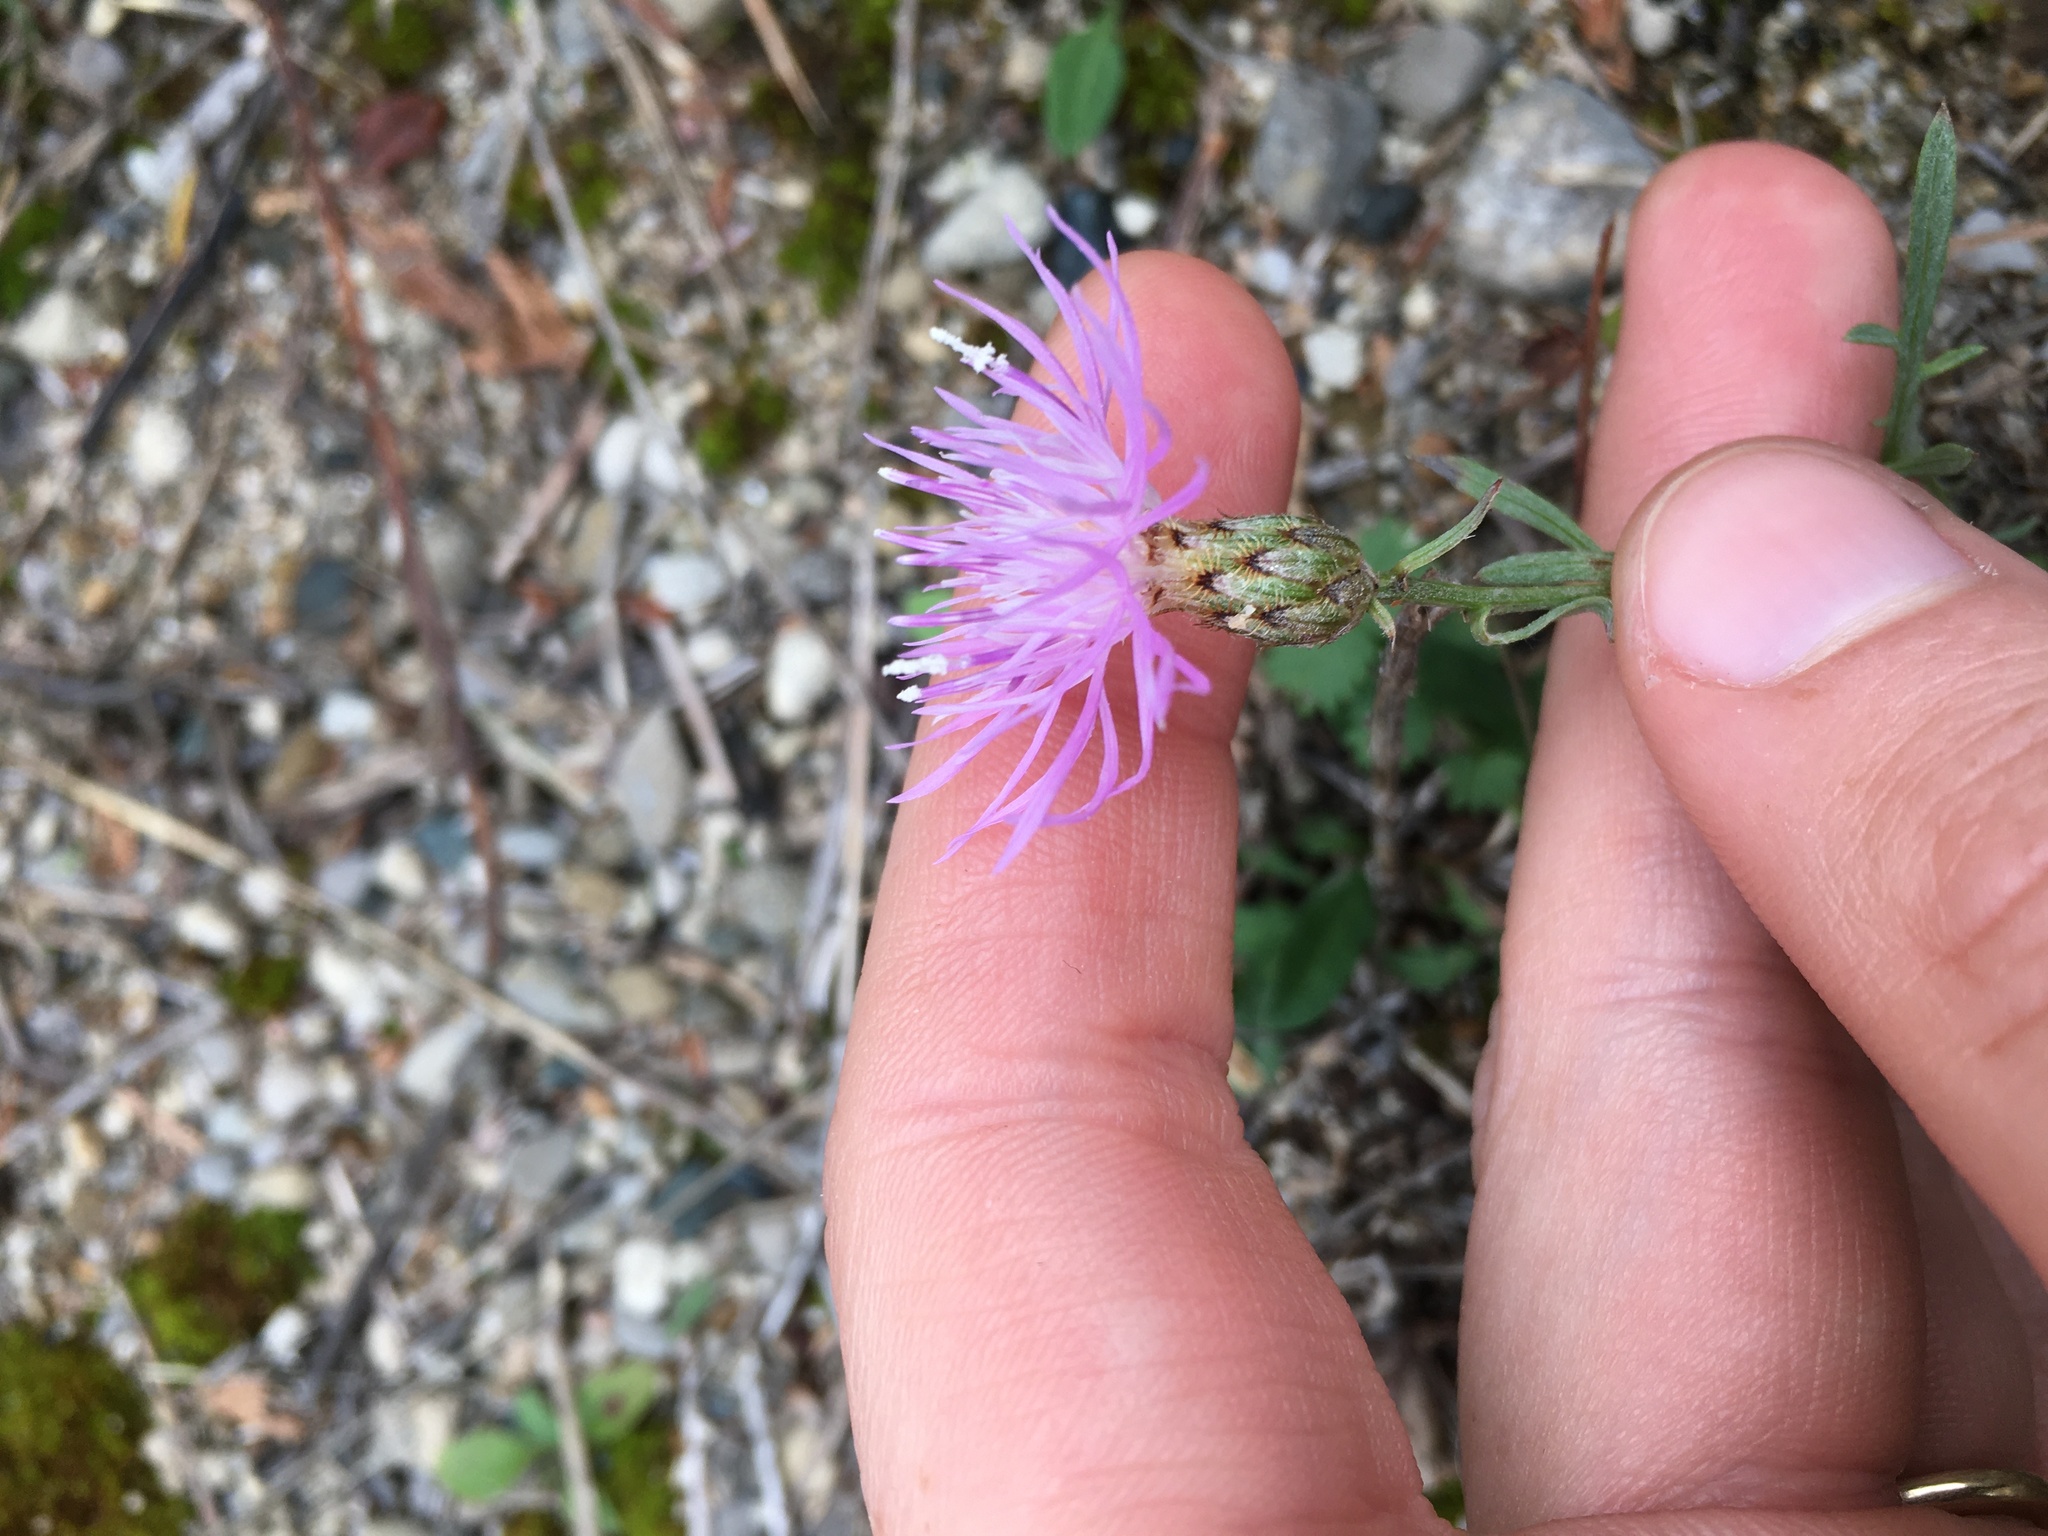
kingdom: Plantae
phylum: Tracheophyta
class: Magnoliopsida
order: Asterales
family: Asteraceae
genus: Centaurea
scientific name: Centaurea stoebe
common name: Spotted knapweed
